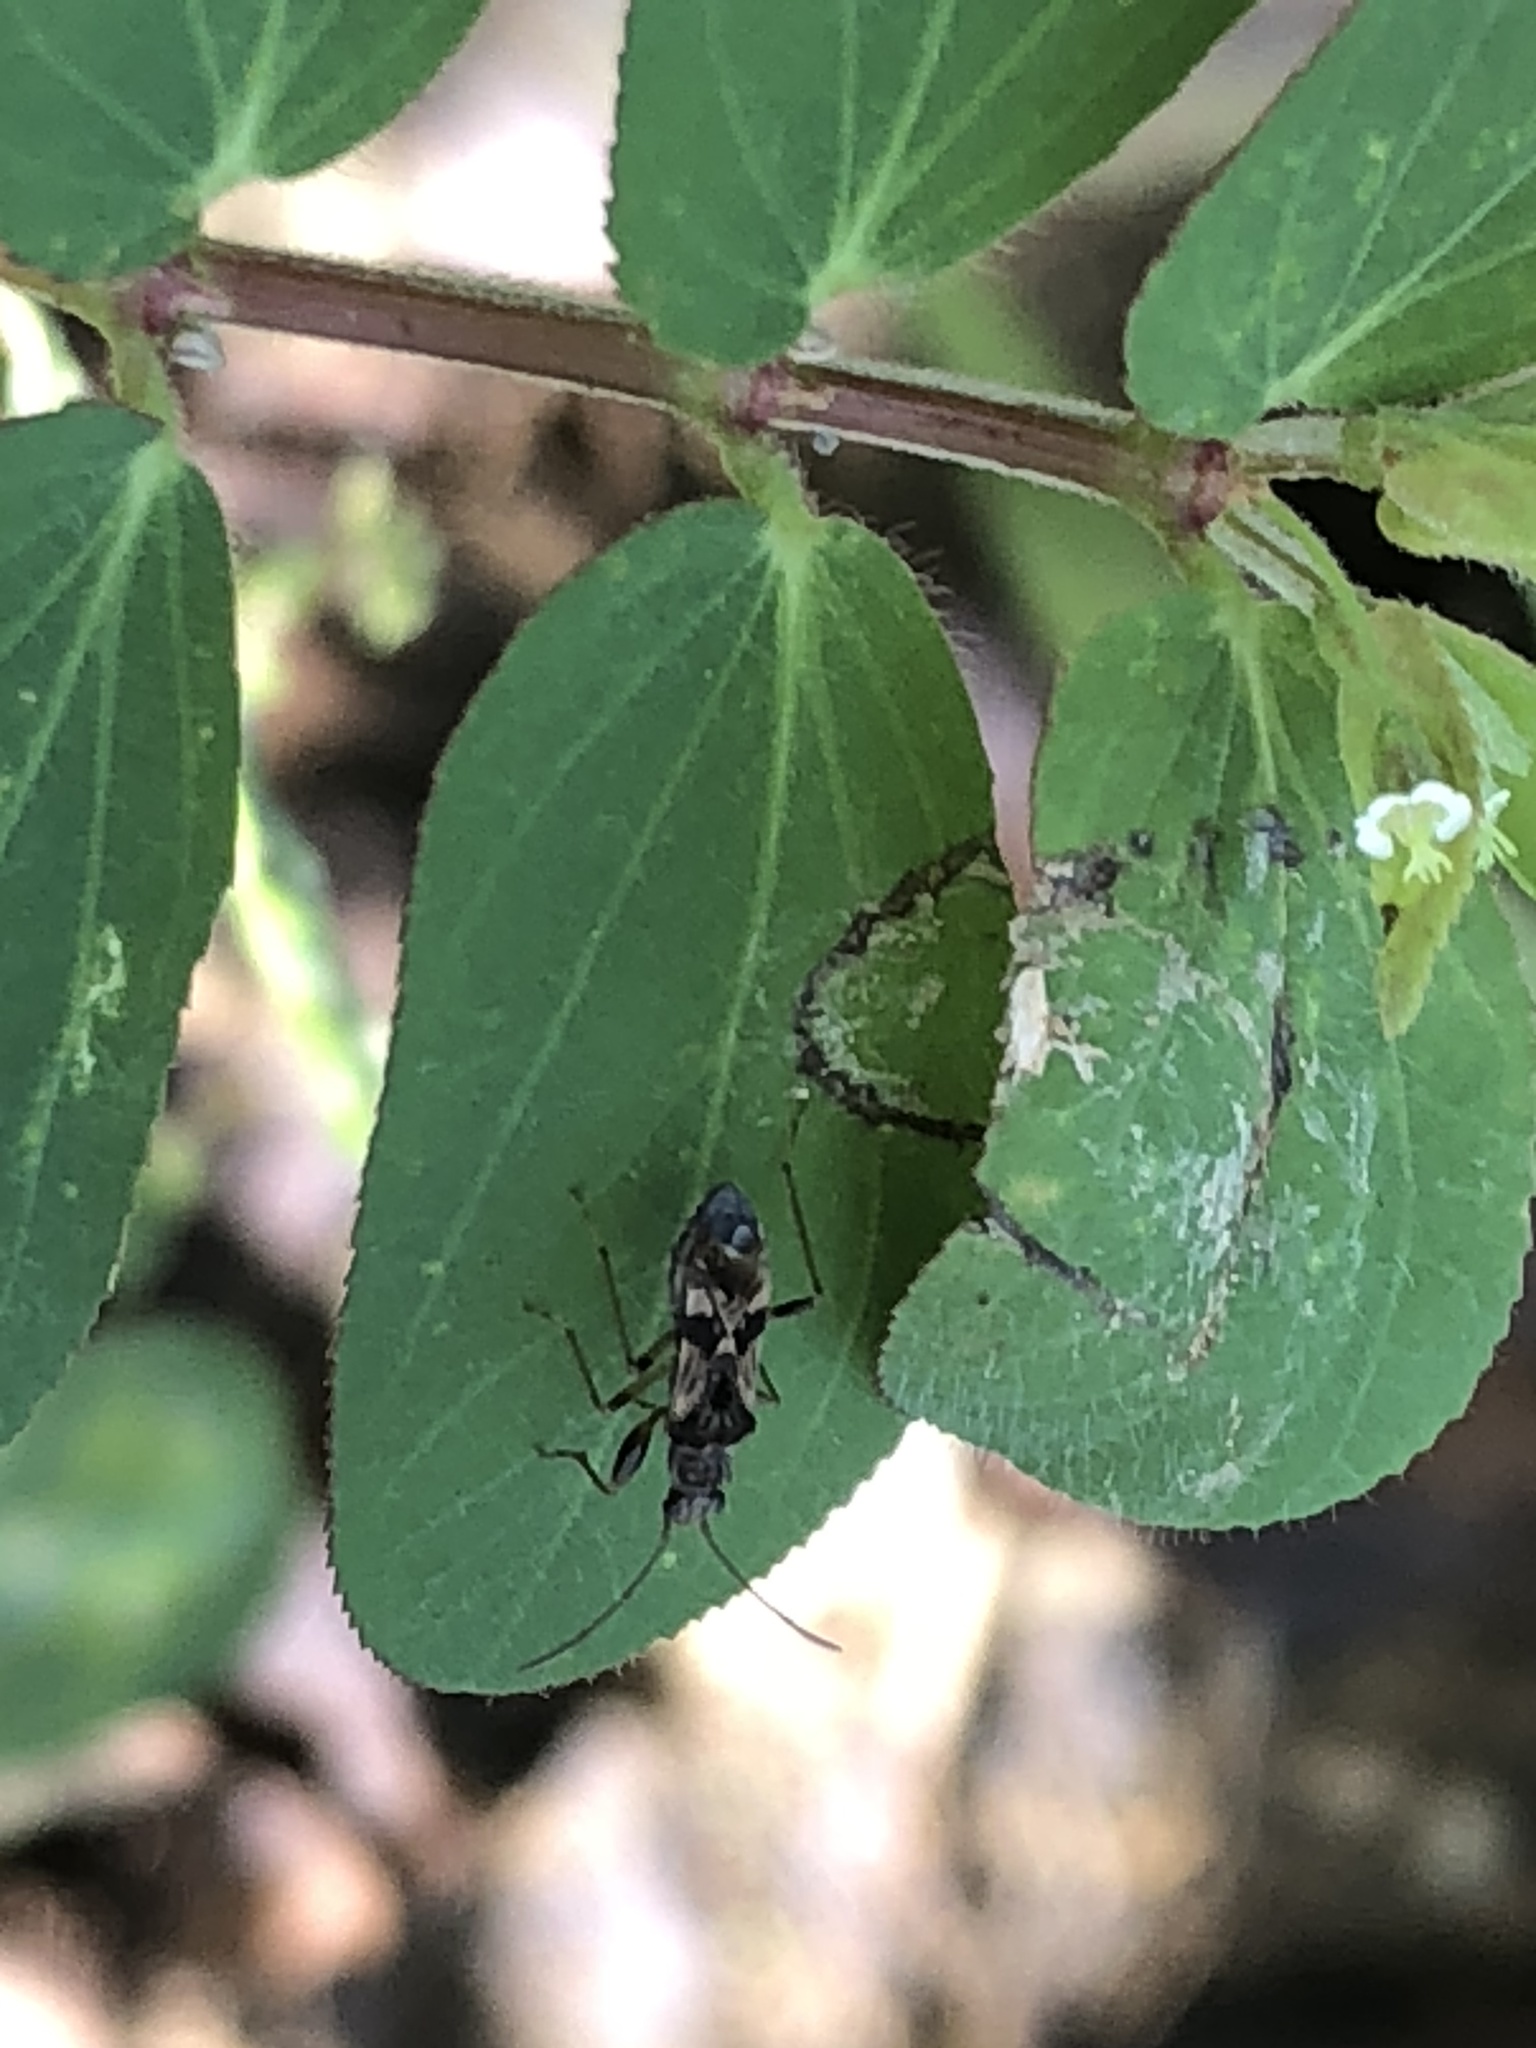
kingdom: Plantae
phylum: Tracheophyta
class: Magnoliopsida
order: Malpighiales
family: Euphorbiaceae
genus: Euphorbia
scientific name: Euphorbia lasiocarpa
